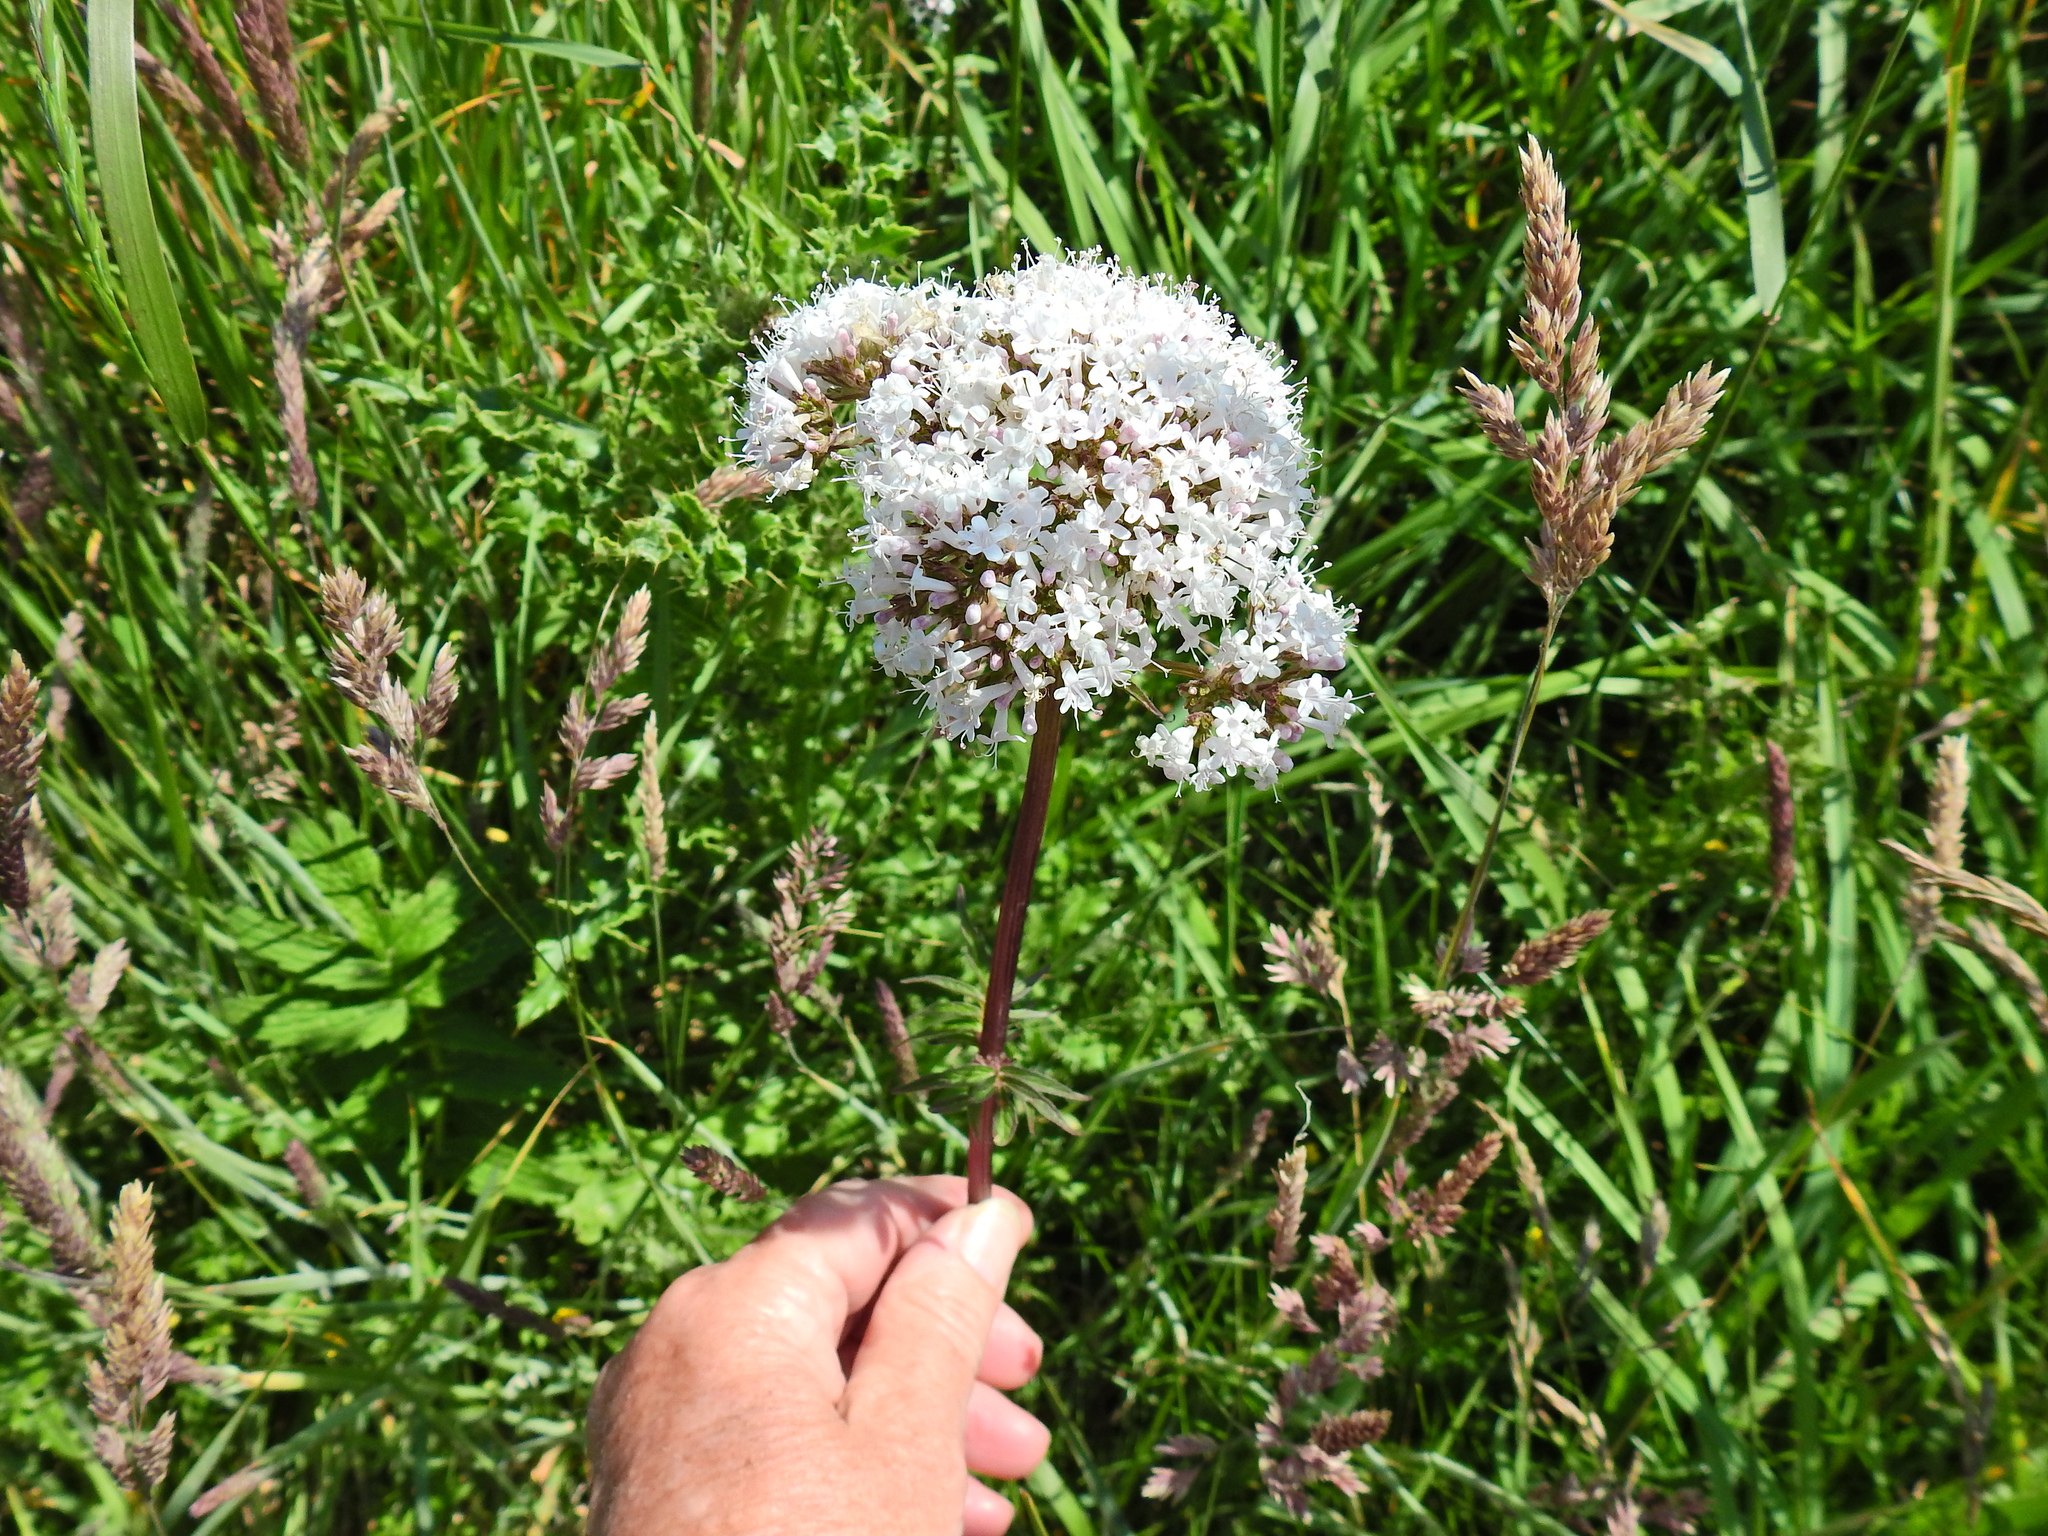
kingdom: Plantae
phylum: Tracheophyta
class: Magnoliopsida
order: Dipsacales
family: Caprifoliaceae
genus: Valeriana
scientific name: Valeriana officinalis
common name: Common valerian
